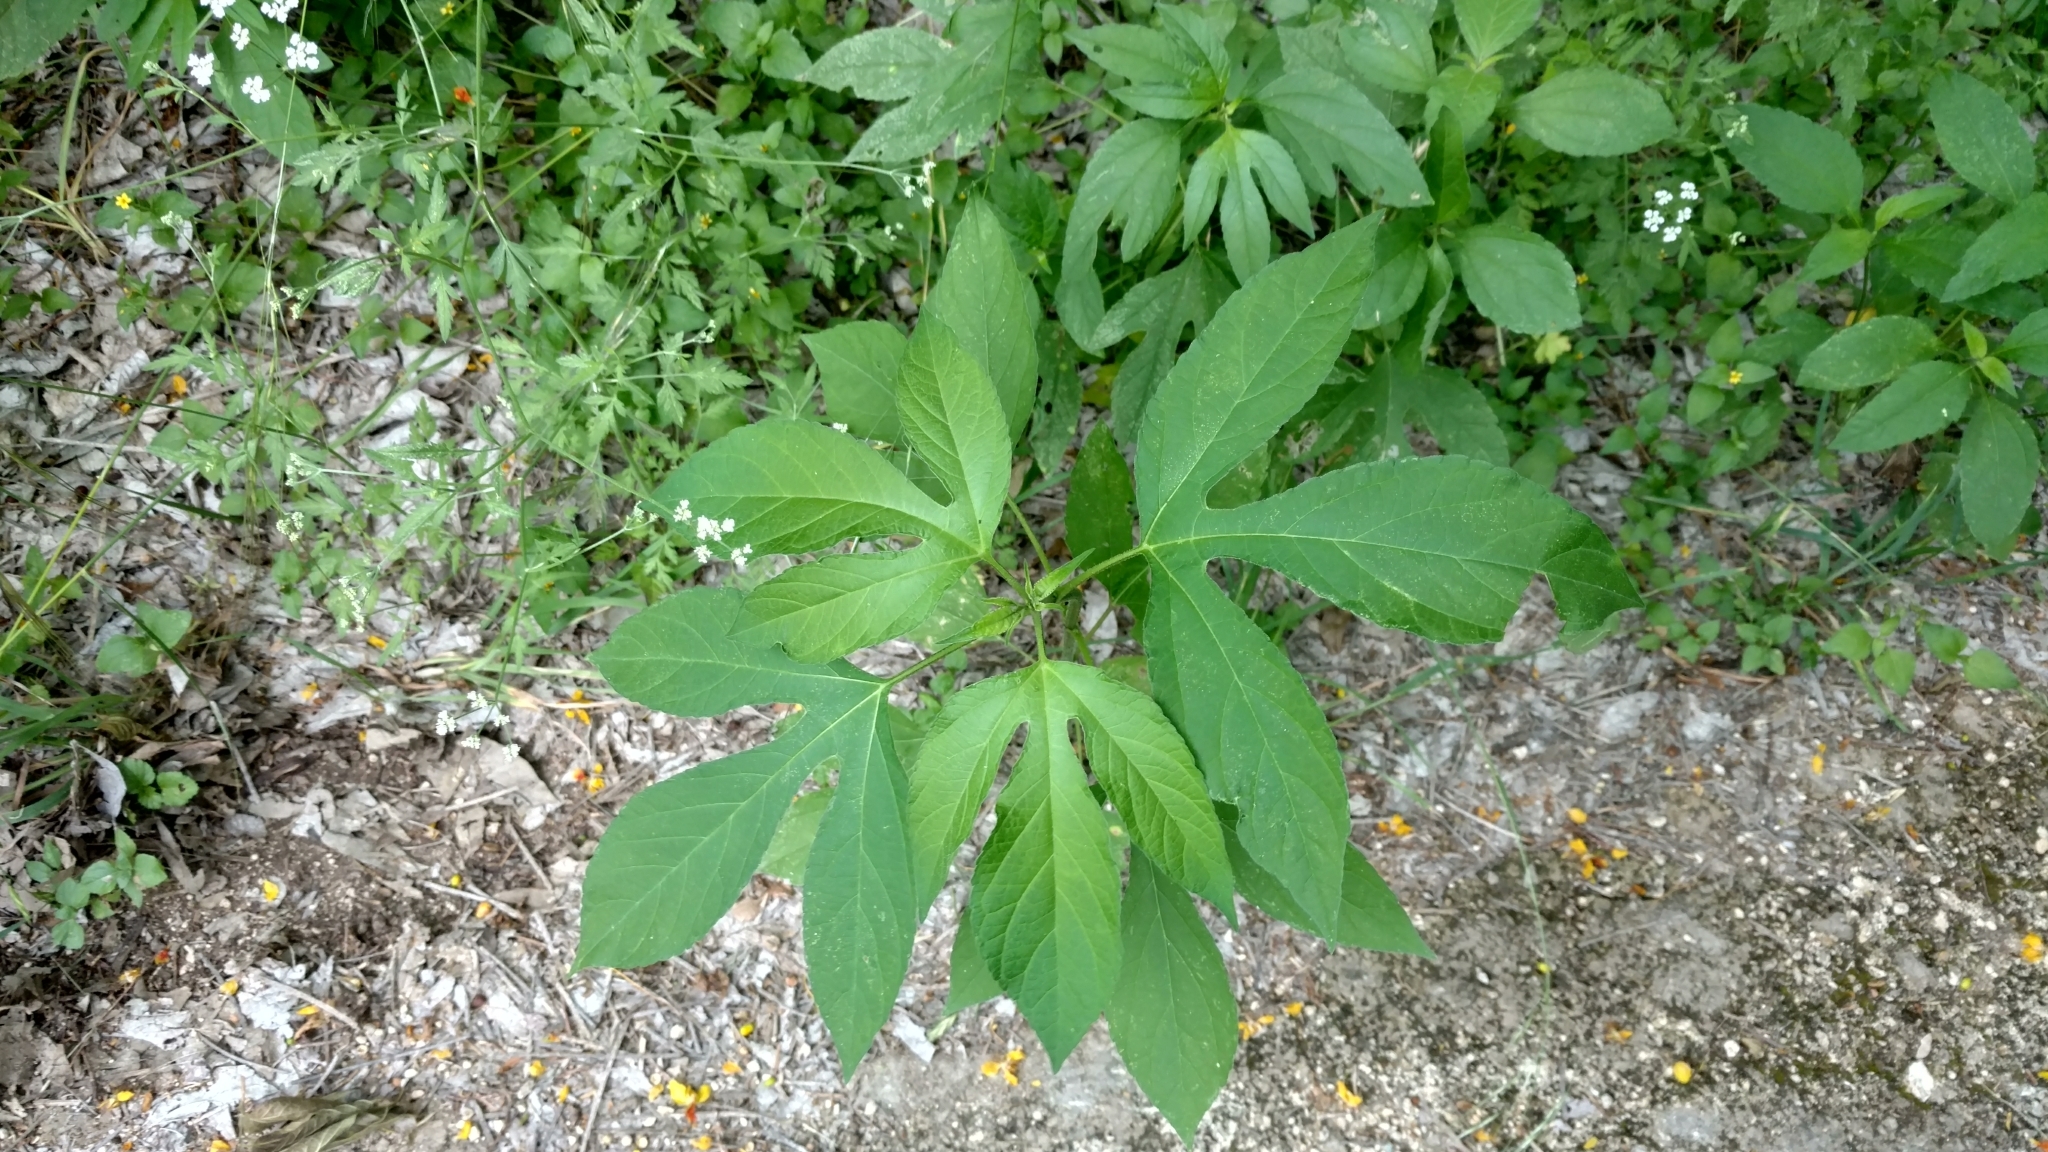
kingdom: Plantae
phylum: Tracheophyta
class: Magnoliopsida
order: Asterales
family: Asteraceae
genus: Ambrosia
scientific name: Ambrosia trifida
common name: Giant ragweed
